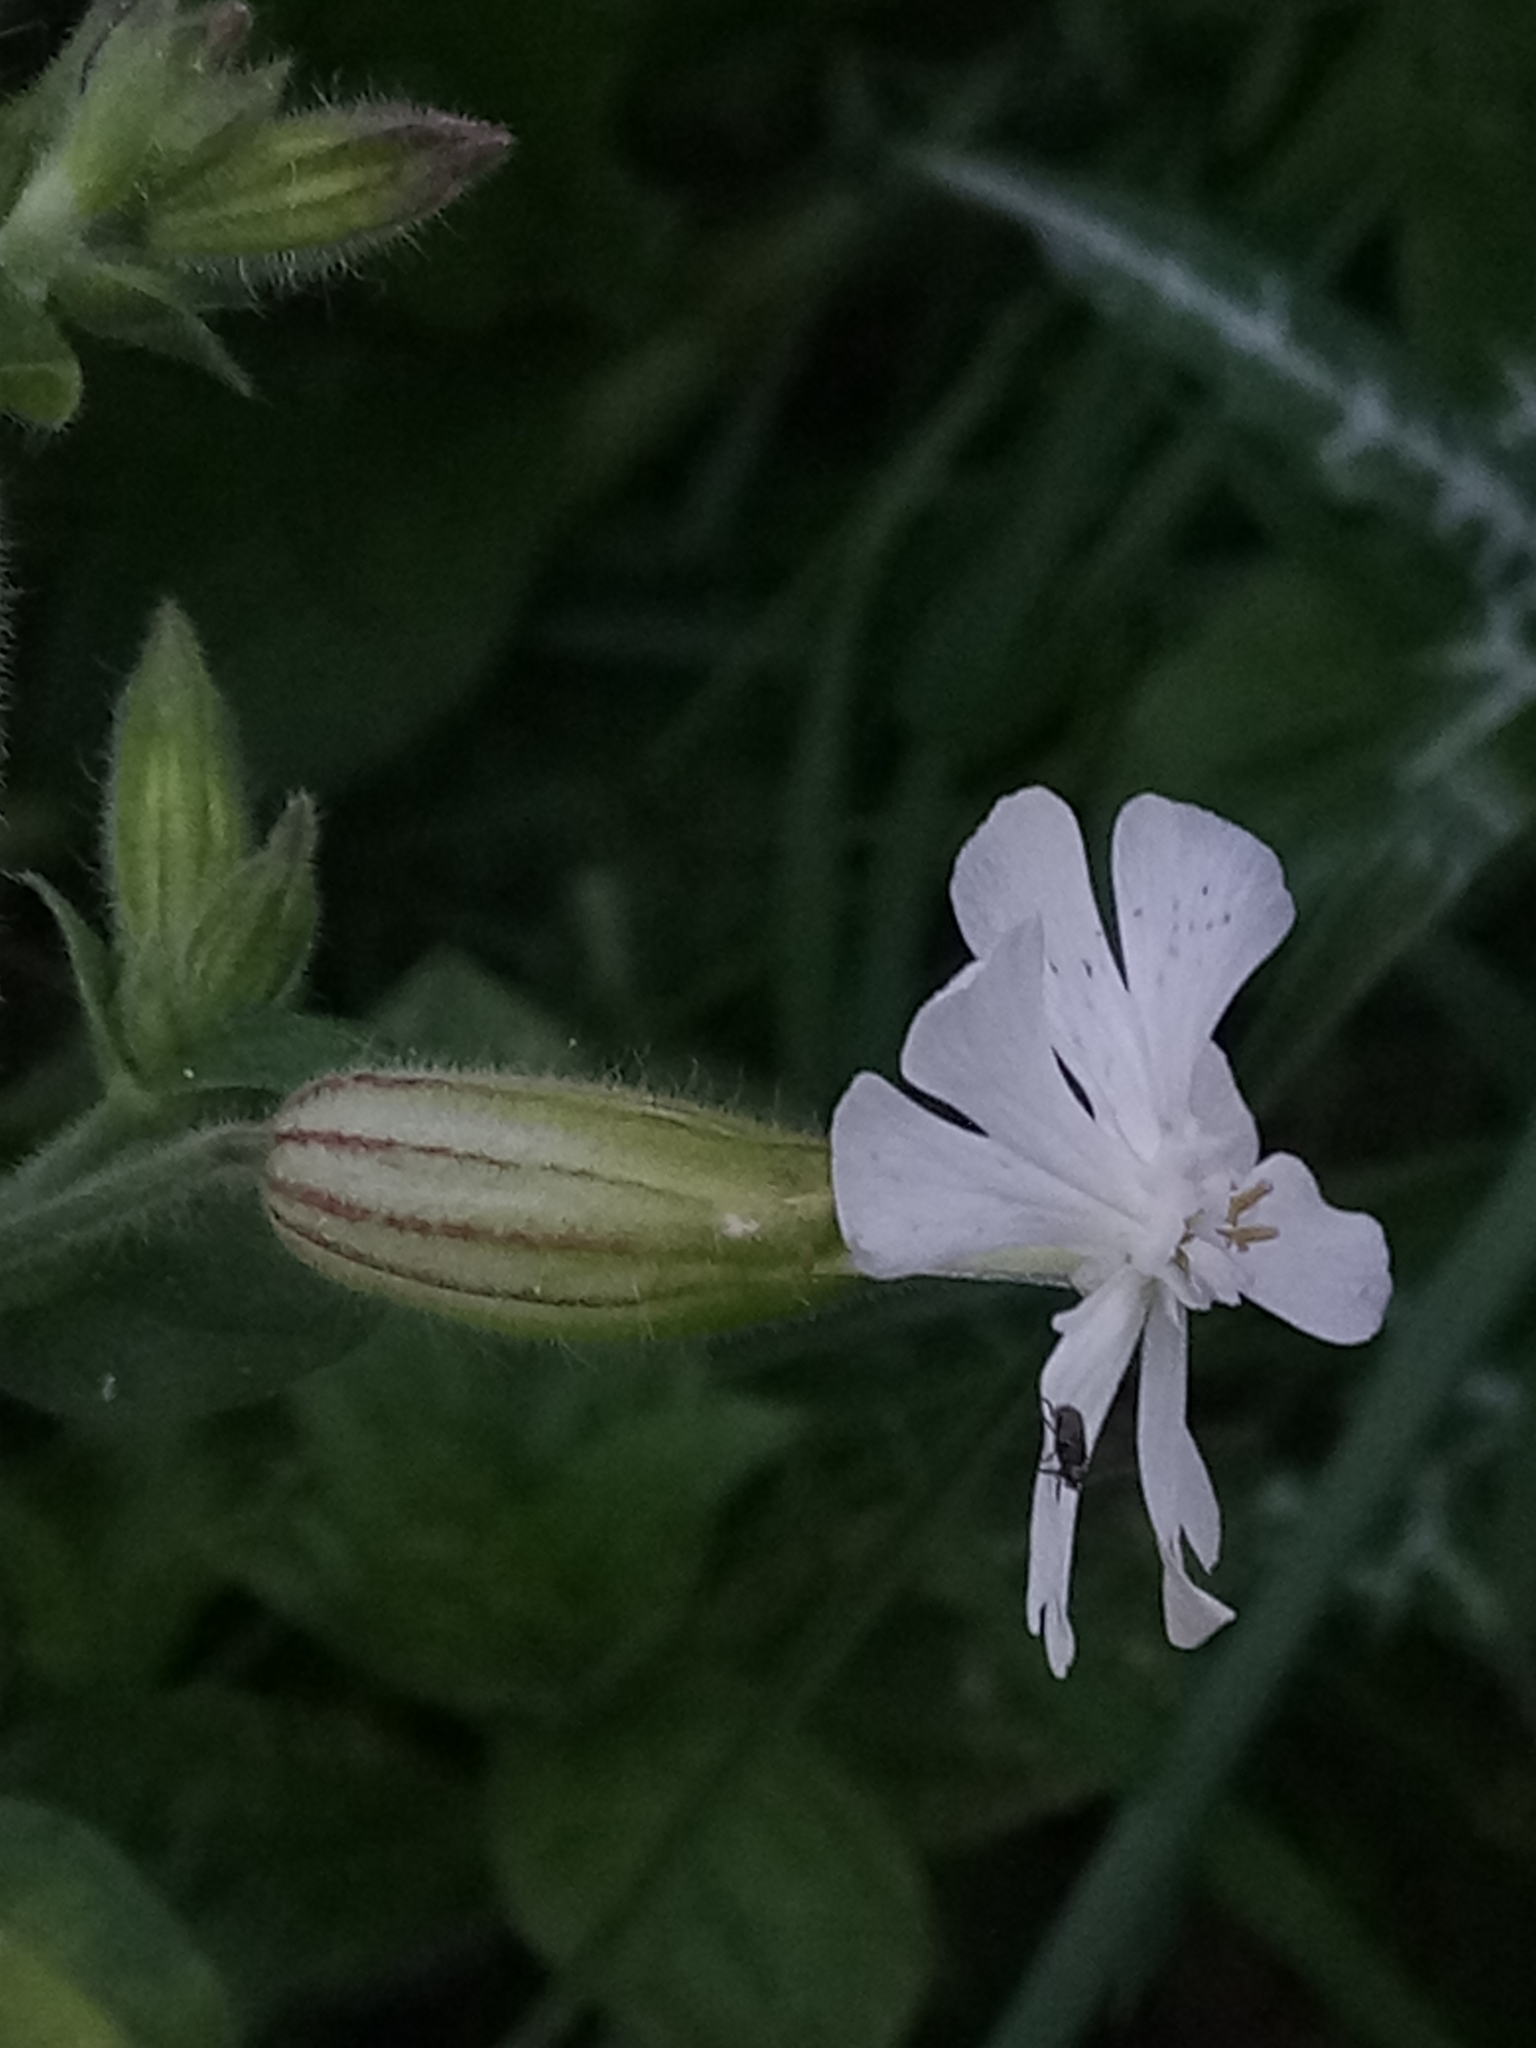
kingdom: Plantae
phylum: Tracheophyta
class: Magnoliopsida
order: Caryophyllales
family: Caryophyllaceae
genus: Silene
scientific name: Silene latifolia
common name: White campion
